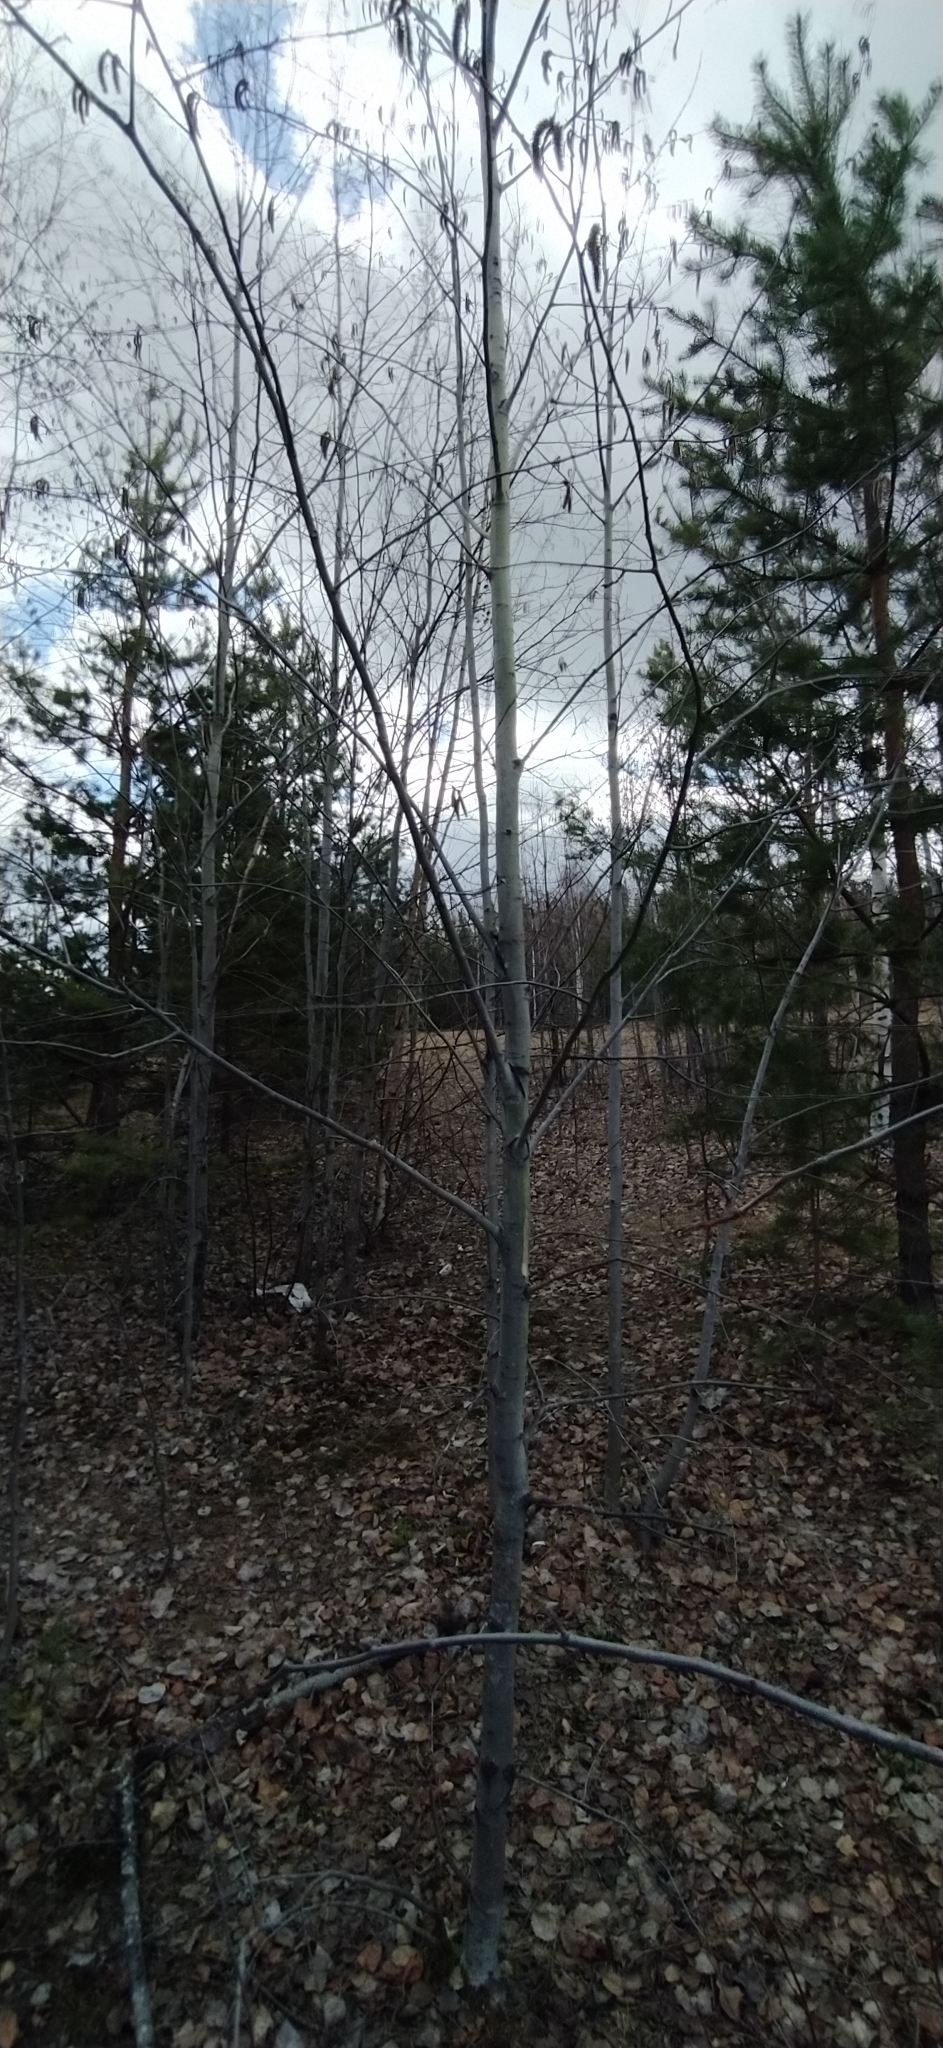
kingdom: Plantae
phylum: Tracheophyta
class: Magnoliopsida
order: Malpighiales
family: Salicaceae
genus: Populus
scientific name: Populus tremula
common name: European aspen
